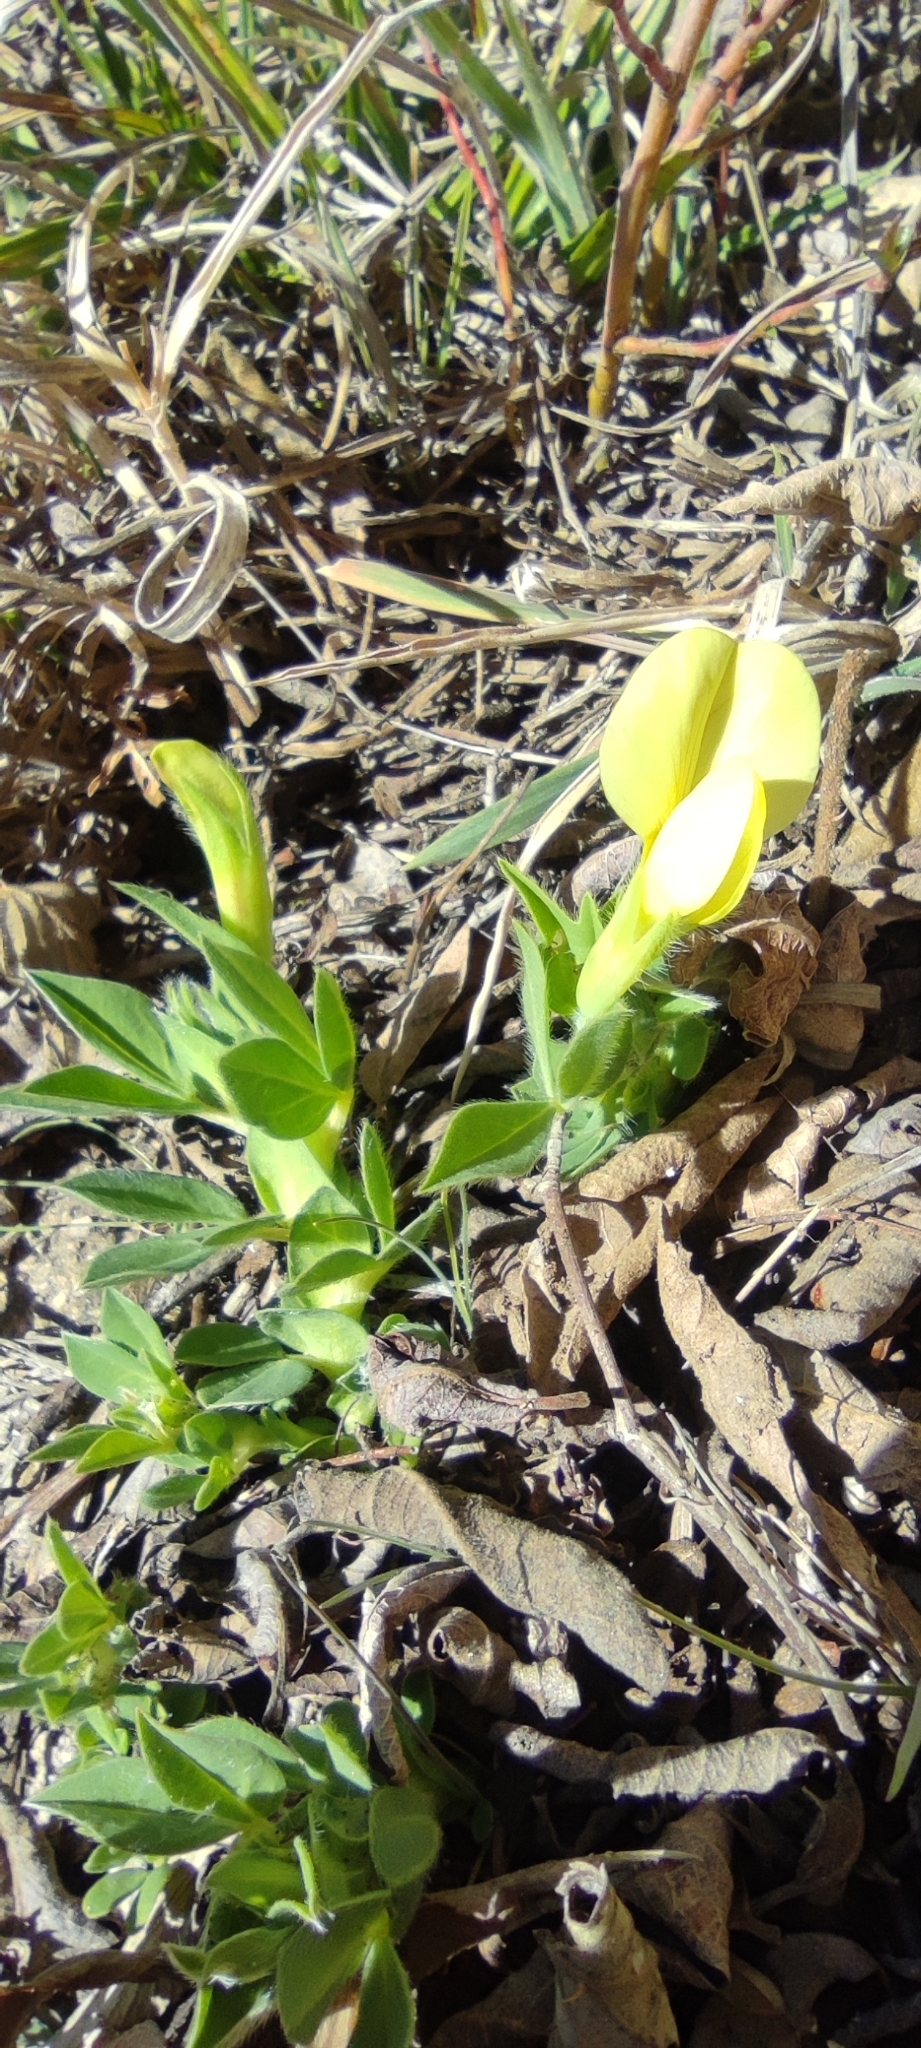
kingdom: Plantae
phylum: Tracheophyta
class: Magnoliopsida
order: Fabales
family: Fabaceae
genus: Lotus
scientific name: Lotus maritimus
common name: Dragon's-teeth
